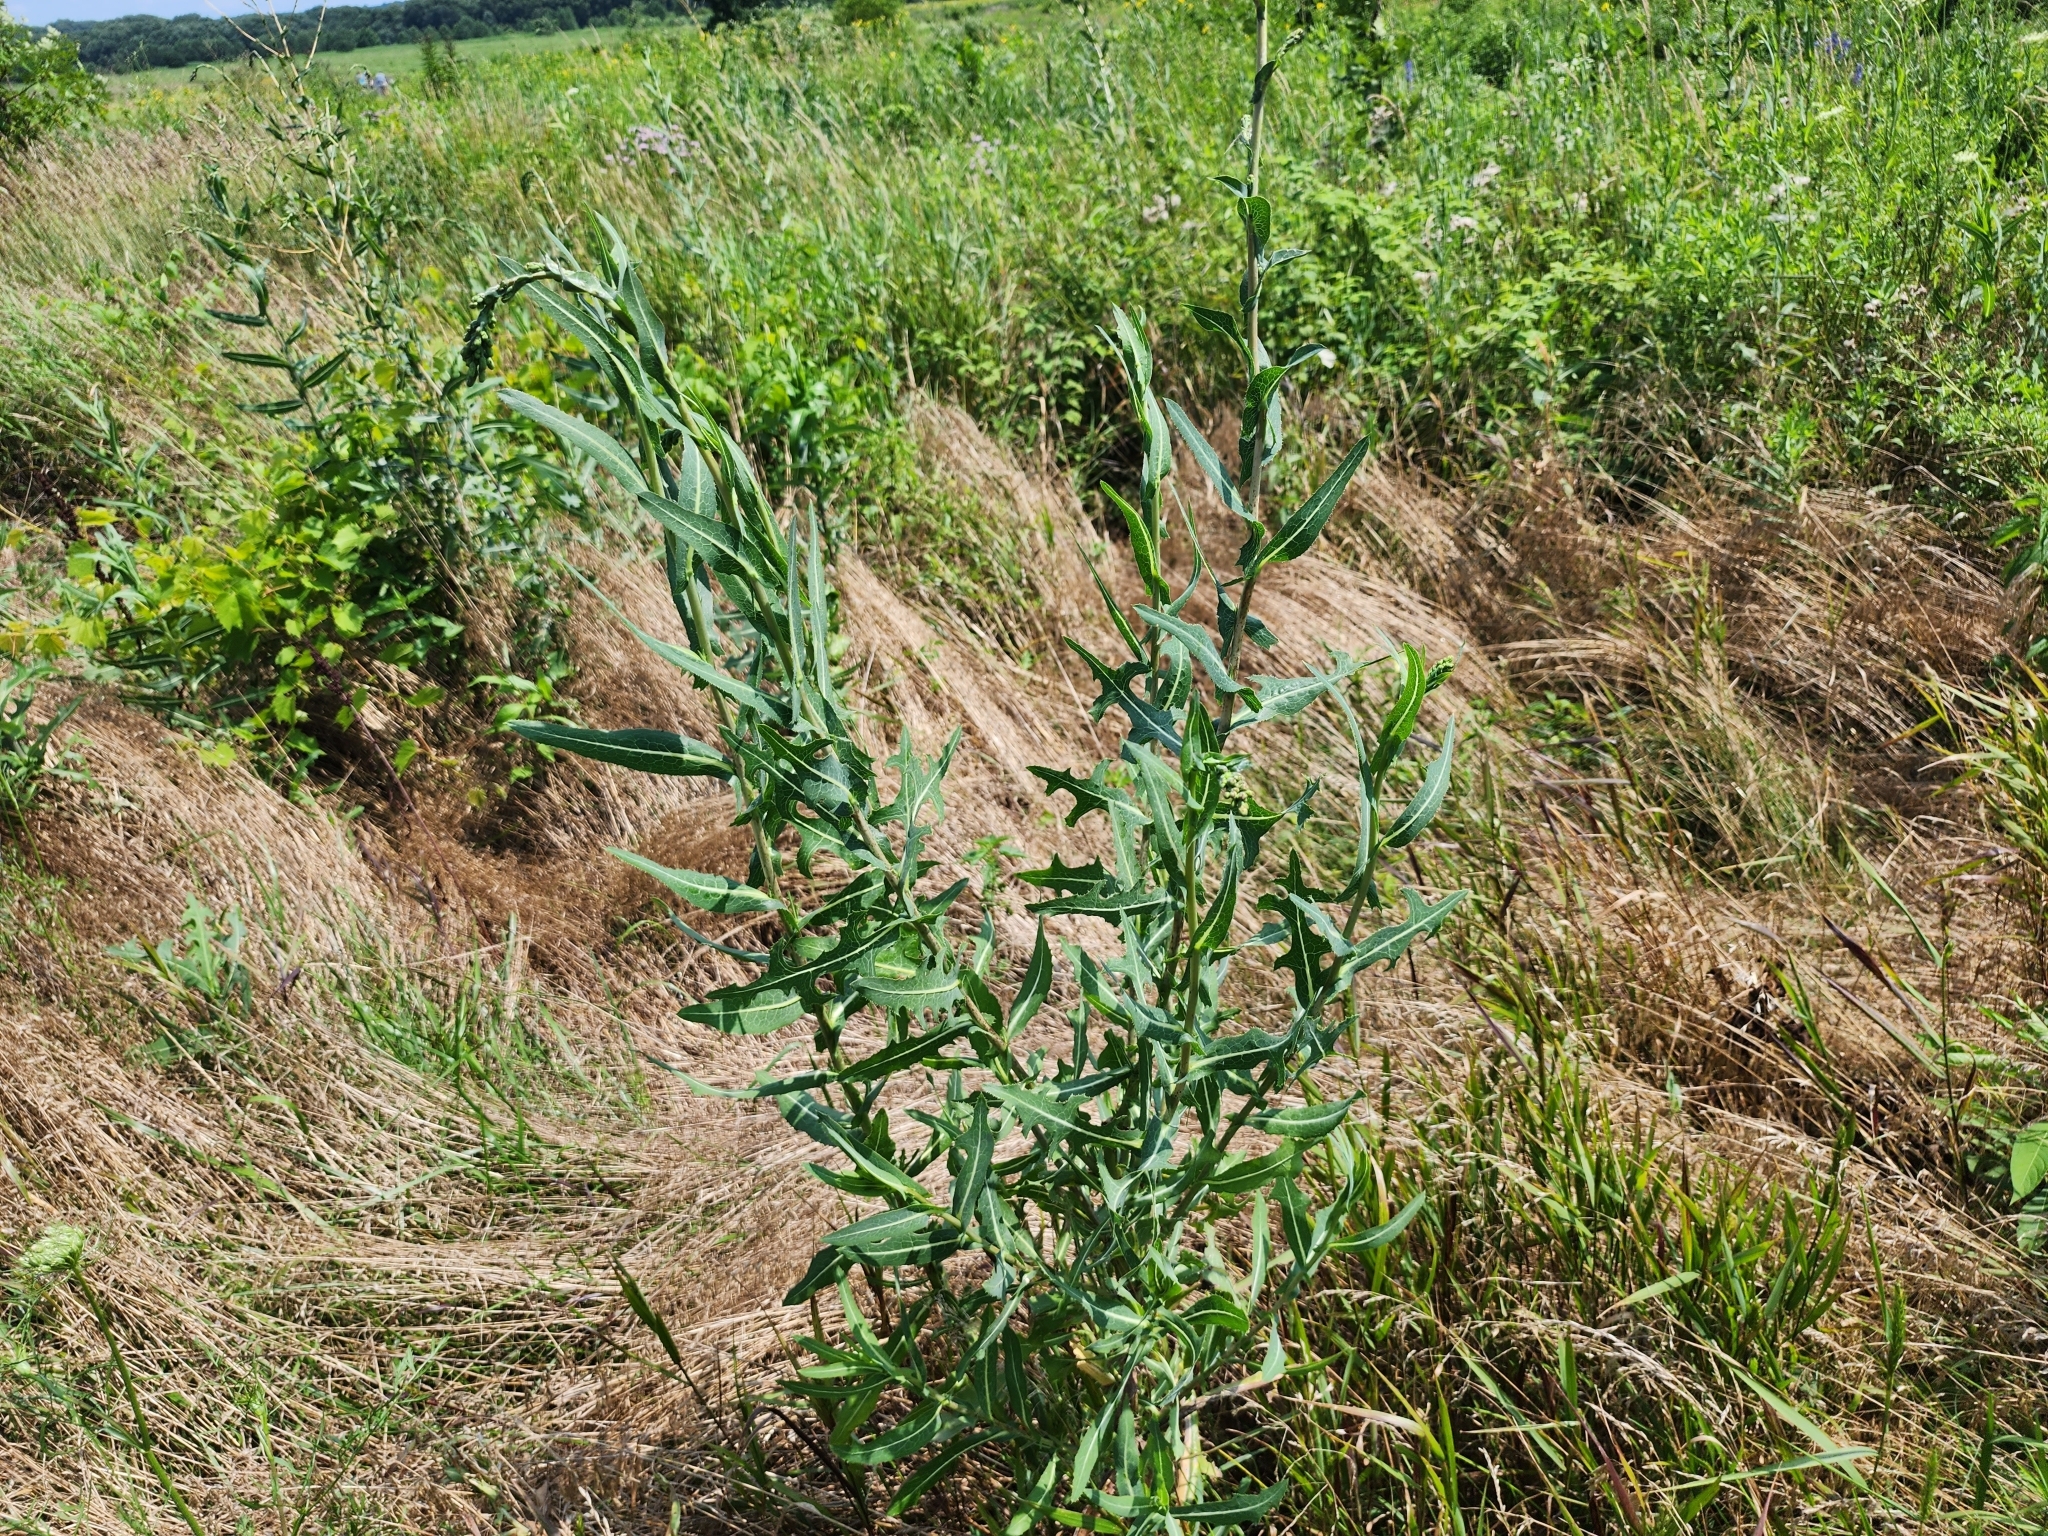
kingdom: Plantae
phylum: Tracheophyta
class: Magnoliopsida
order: Asterales
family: Asteraceae
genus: Lactuca
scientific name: Lactuca serriola
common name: Prickly lettuce
